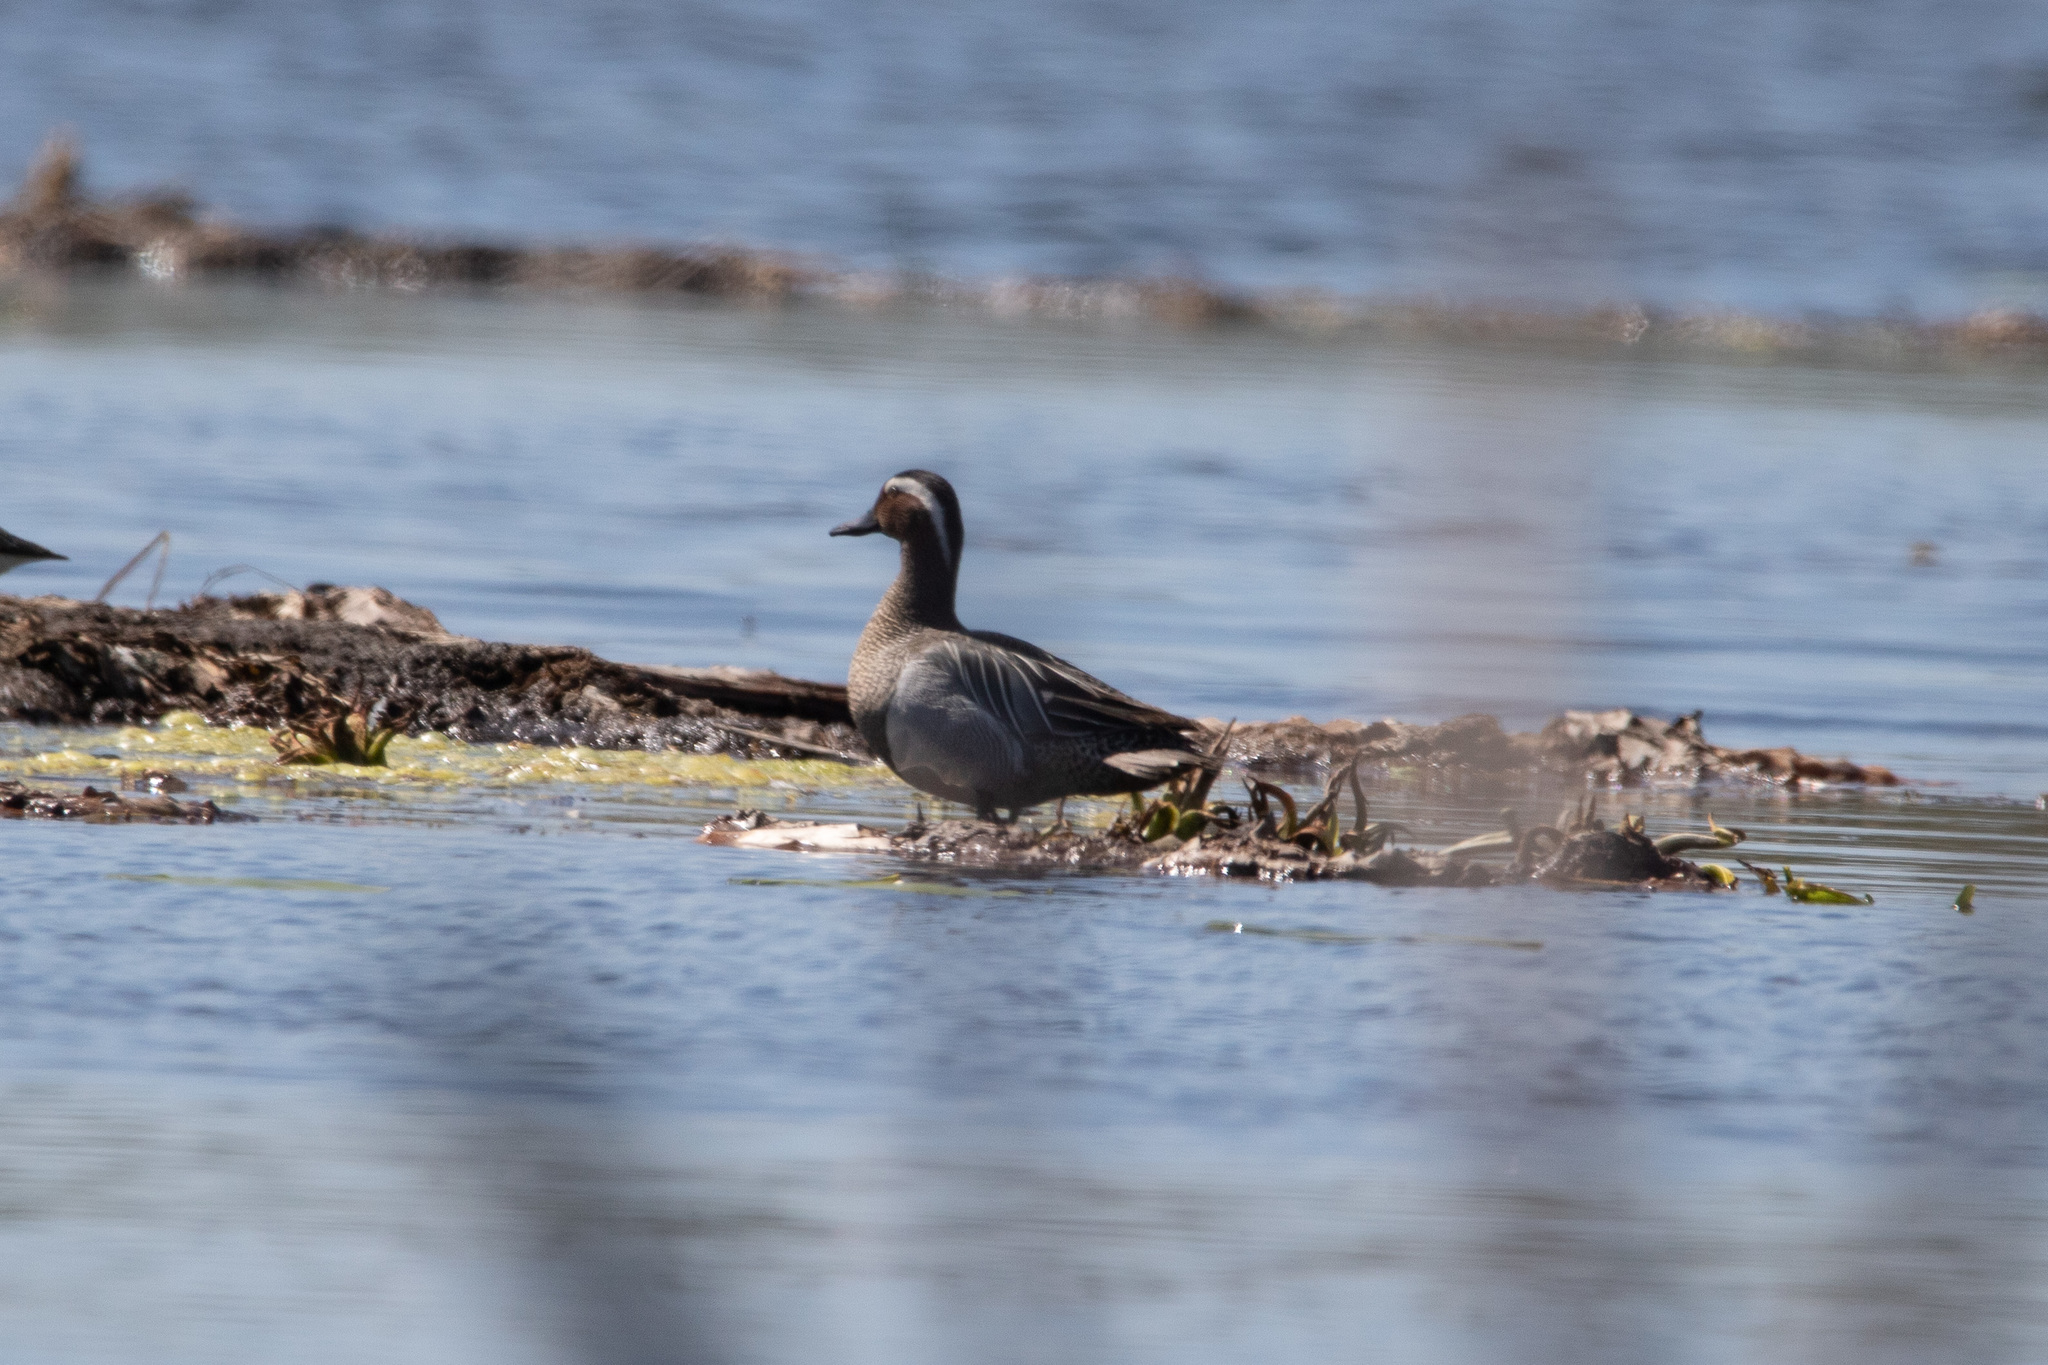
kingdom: Animalia
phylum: Chordata
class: Aves
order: Anseriformes
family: Anatidae
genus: Spatula
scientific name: Spatula querquedula
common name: Garganey
